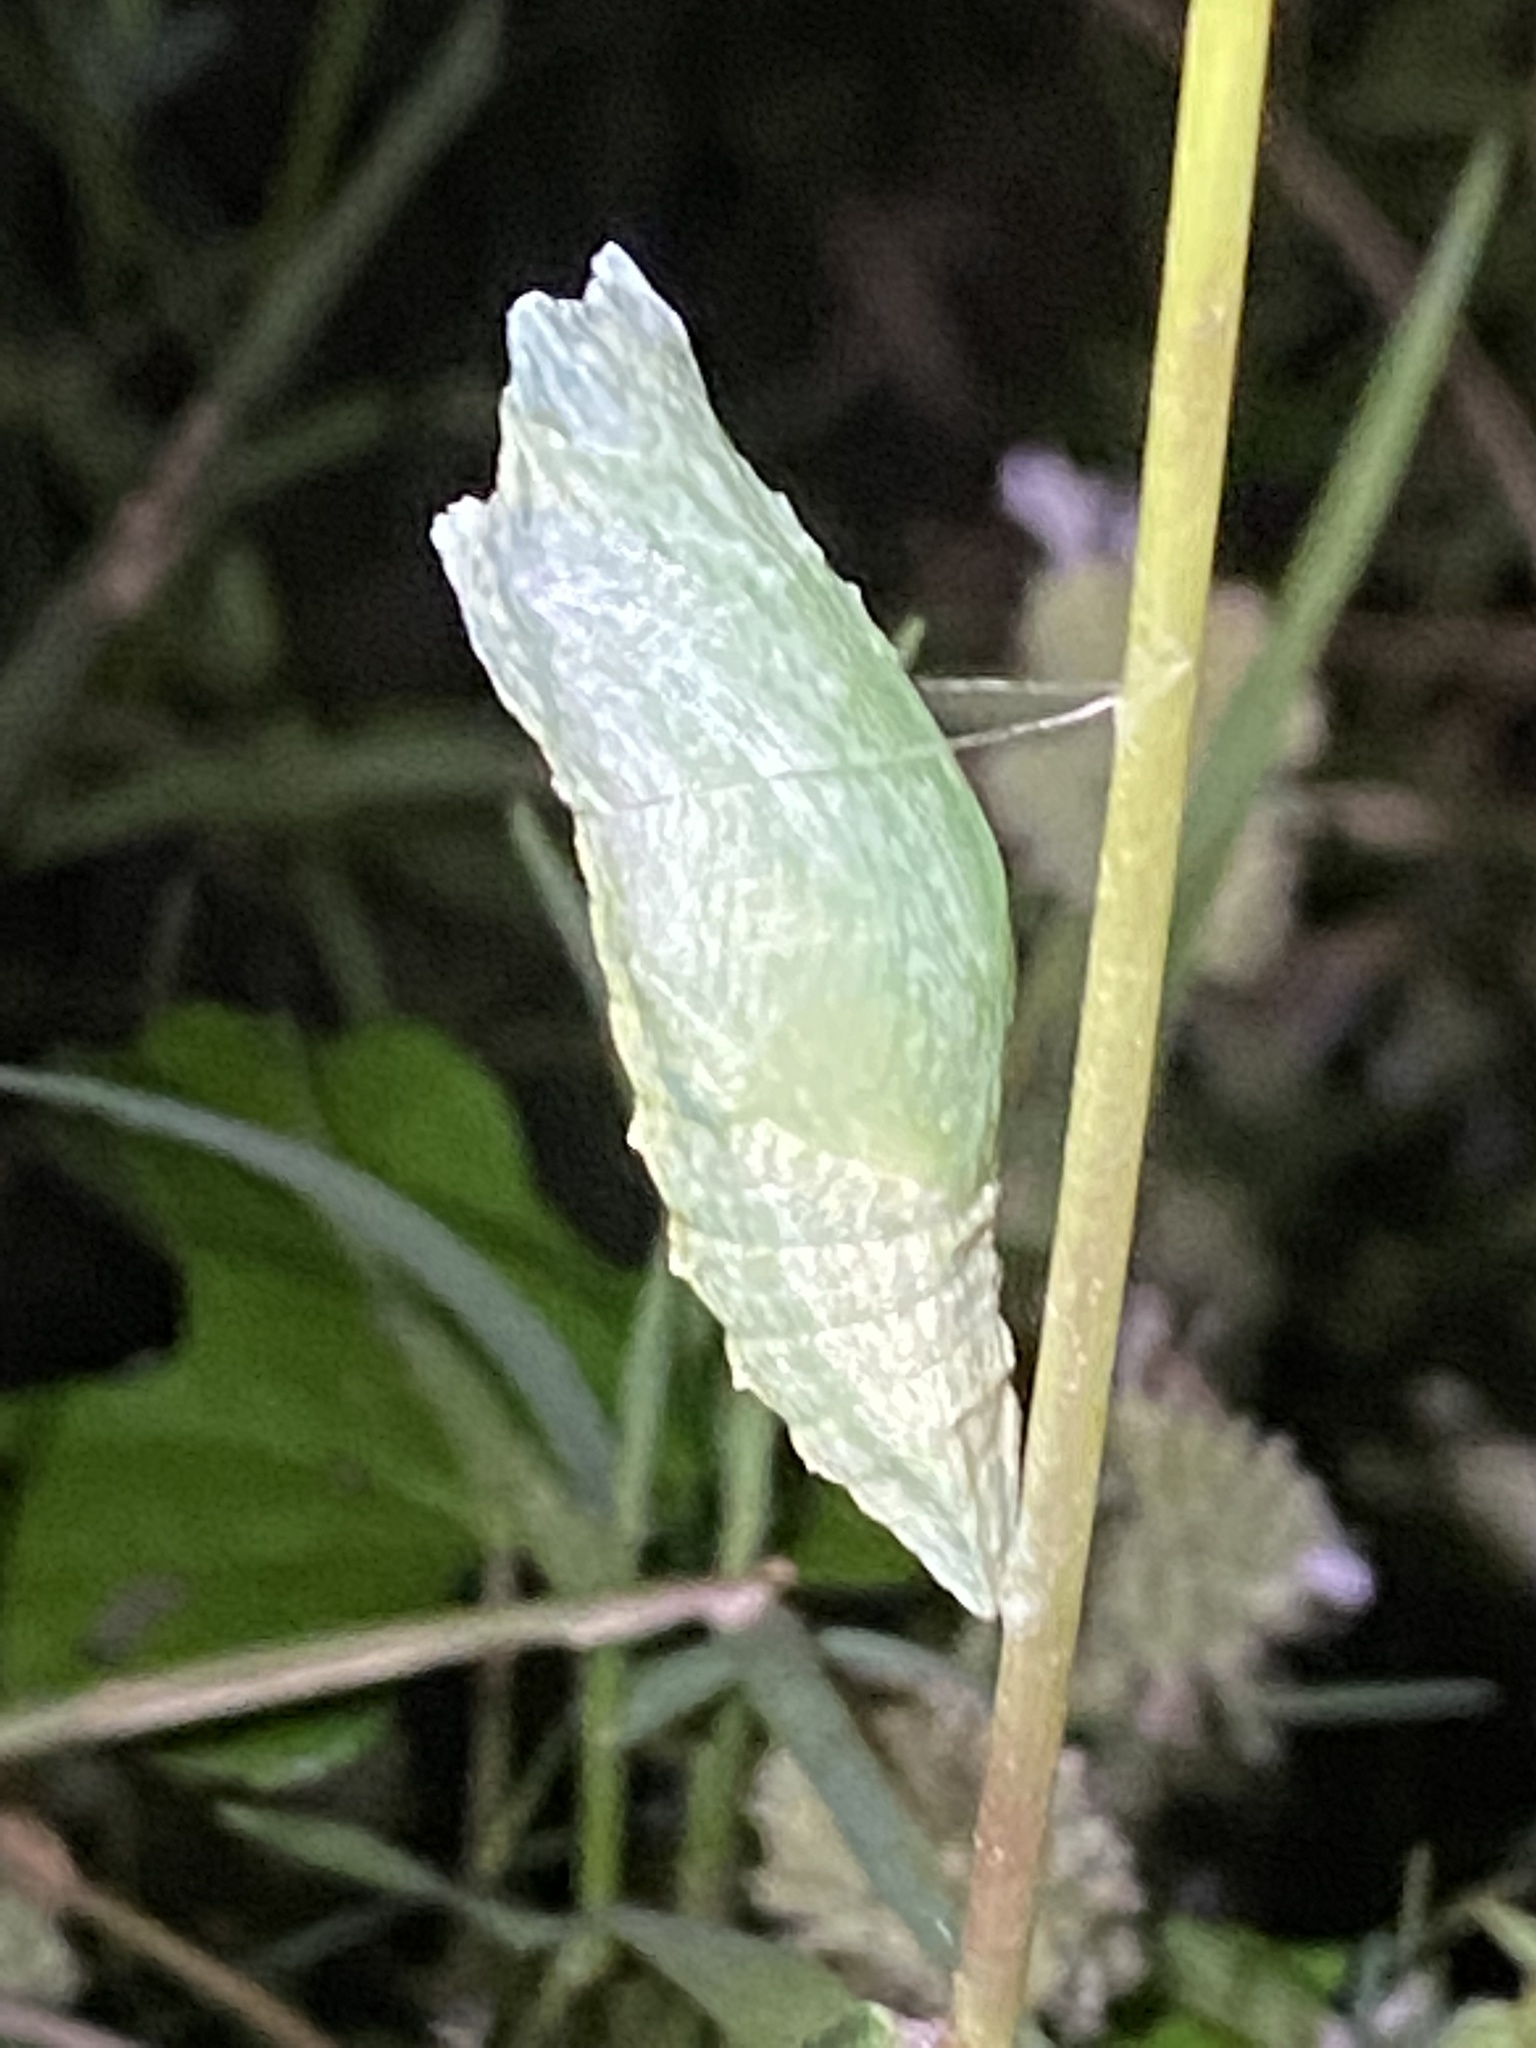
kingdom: Animalia
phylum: Arthropoda
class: Insecta
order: Lepidoptera
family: Papilionidae
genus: Papilio
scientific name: Papilio polyxenes
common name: Black swallowtail
